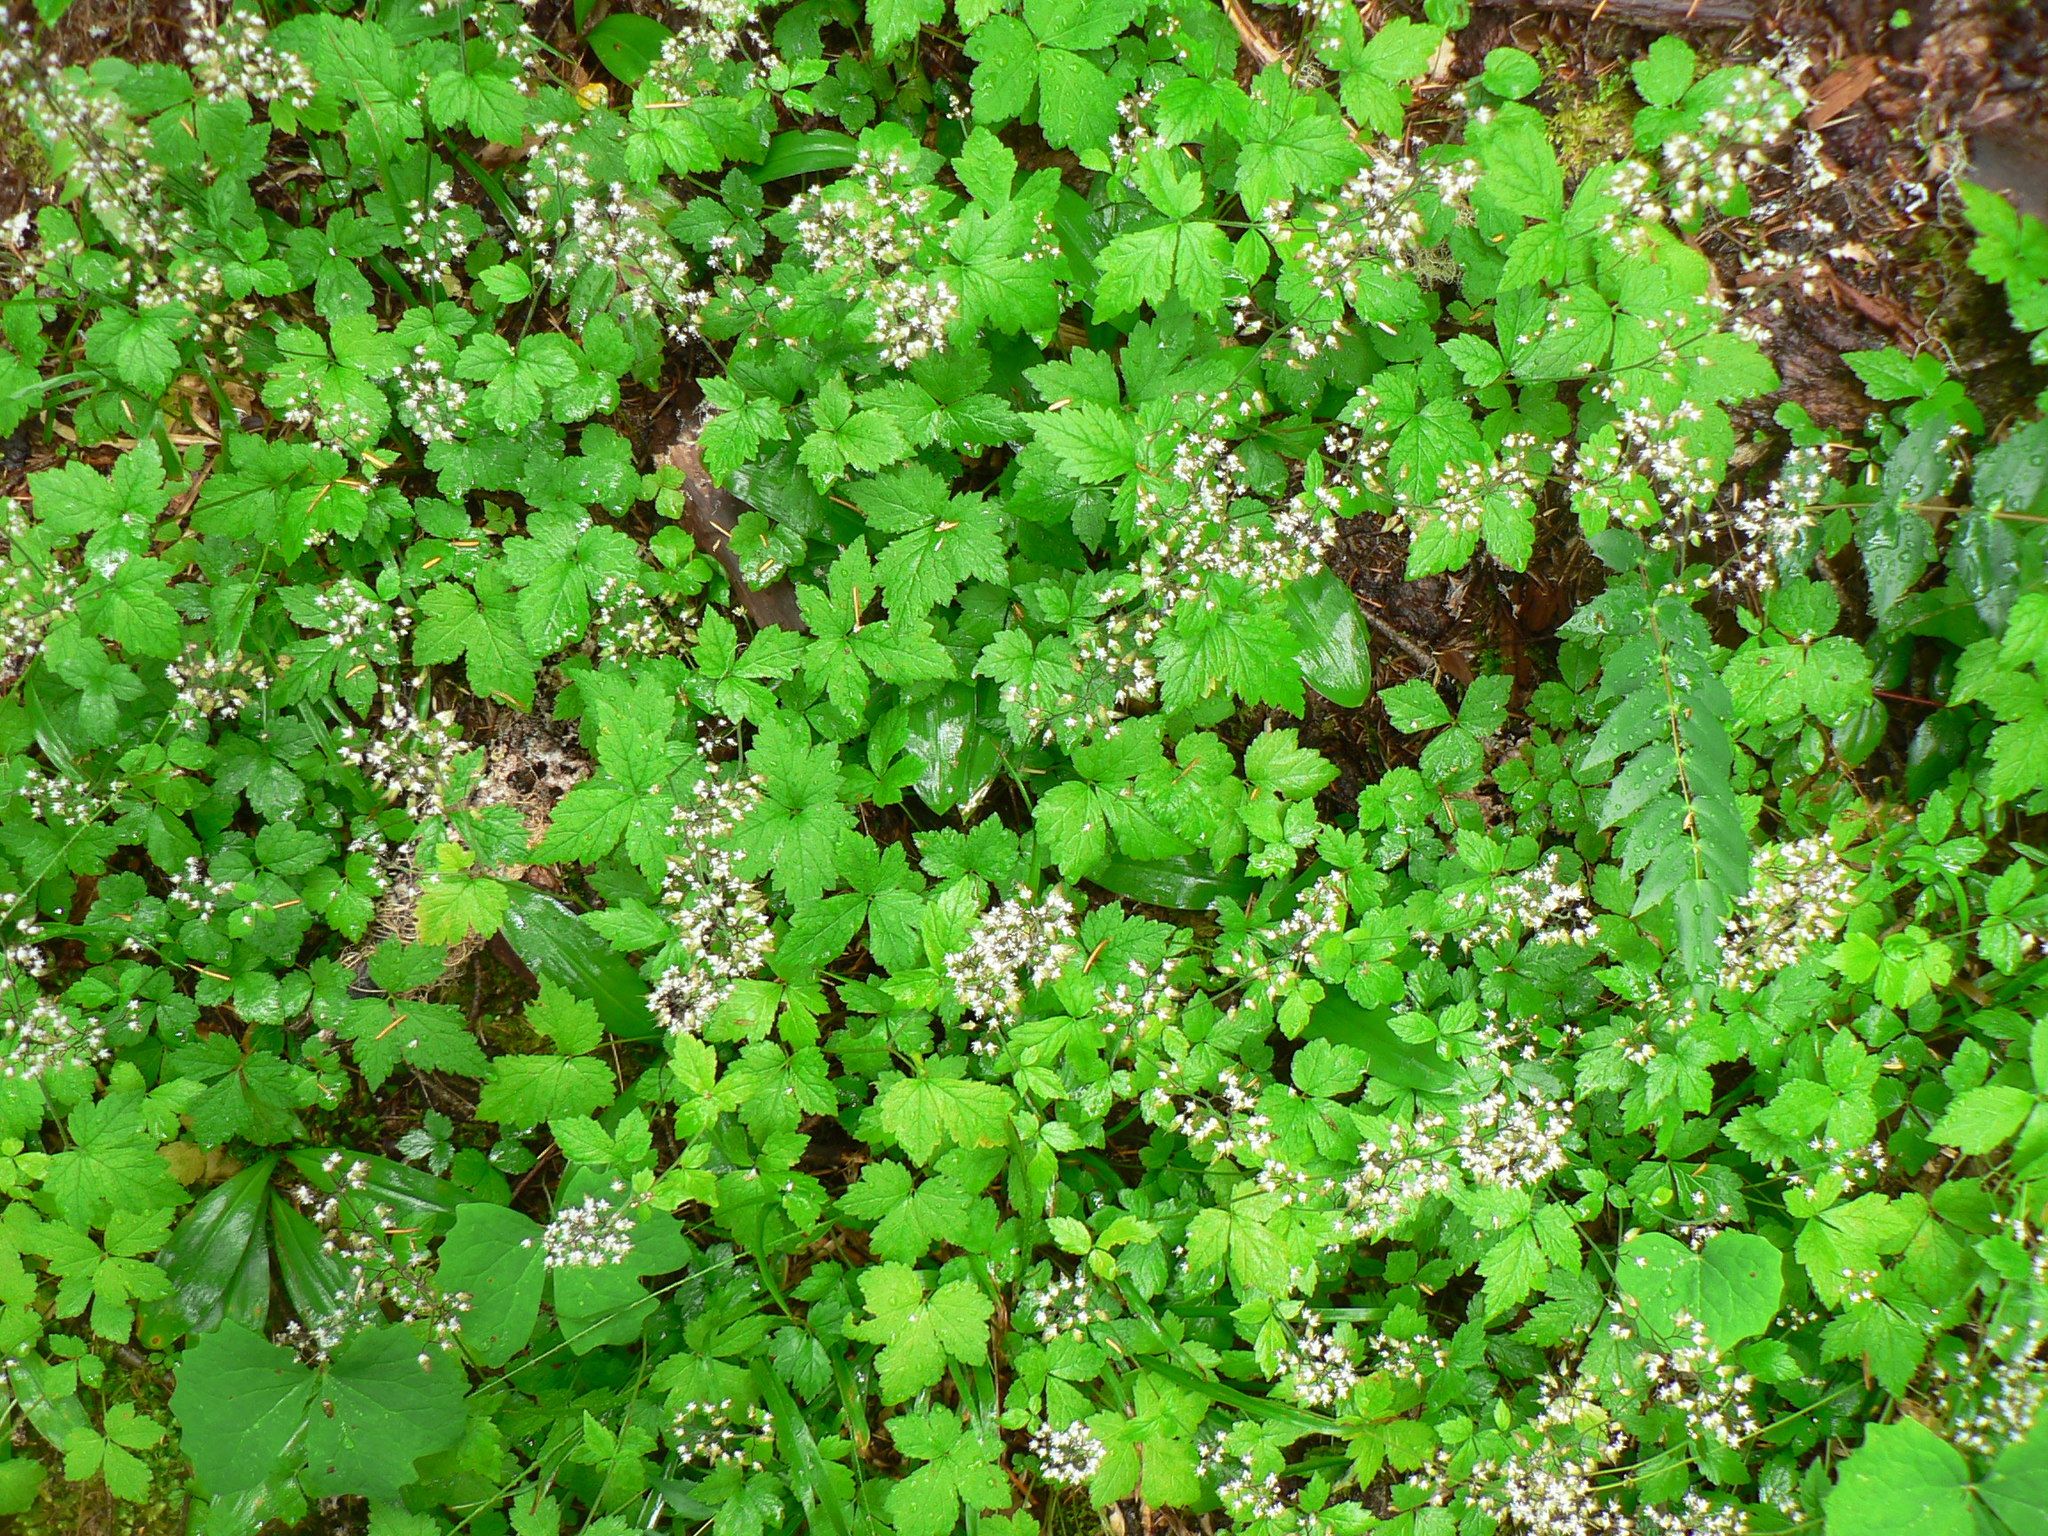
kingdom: Plantae
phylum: Tracheophyta
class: Magnoliopsida
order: Saxifragales
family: Saxifragaceae
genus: Tiarella
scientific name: Tiarella trifoliata
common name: Sugar-scoop
